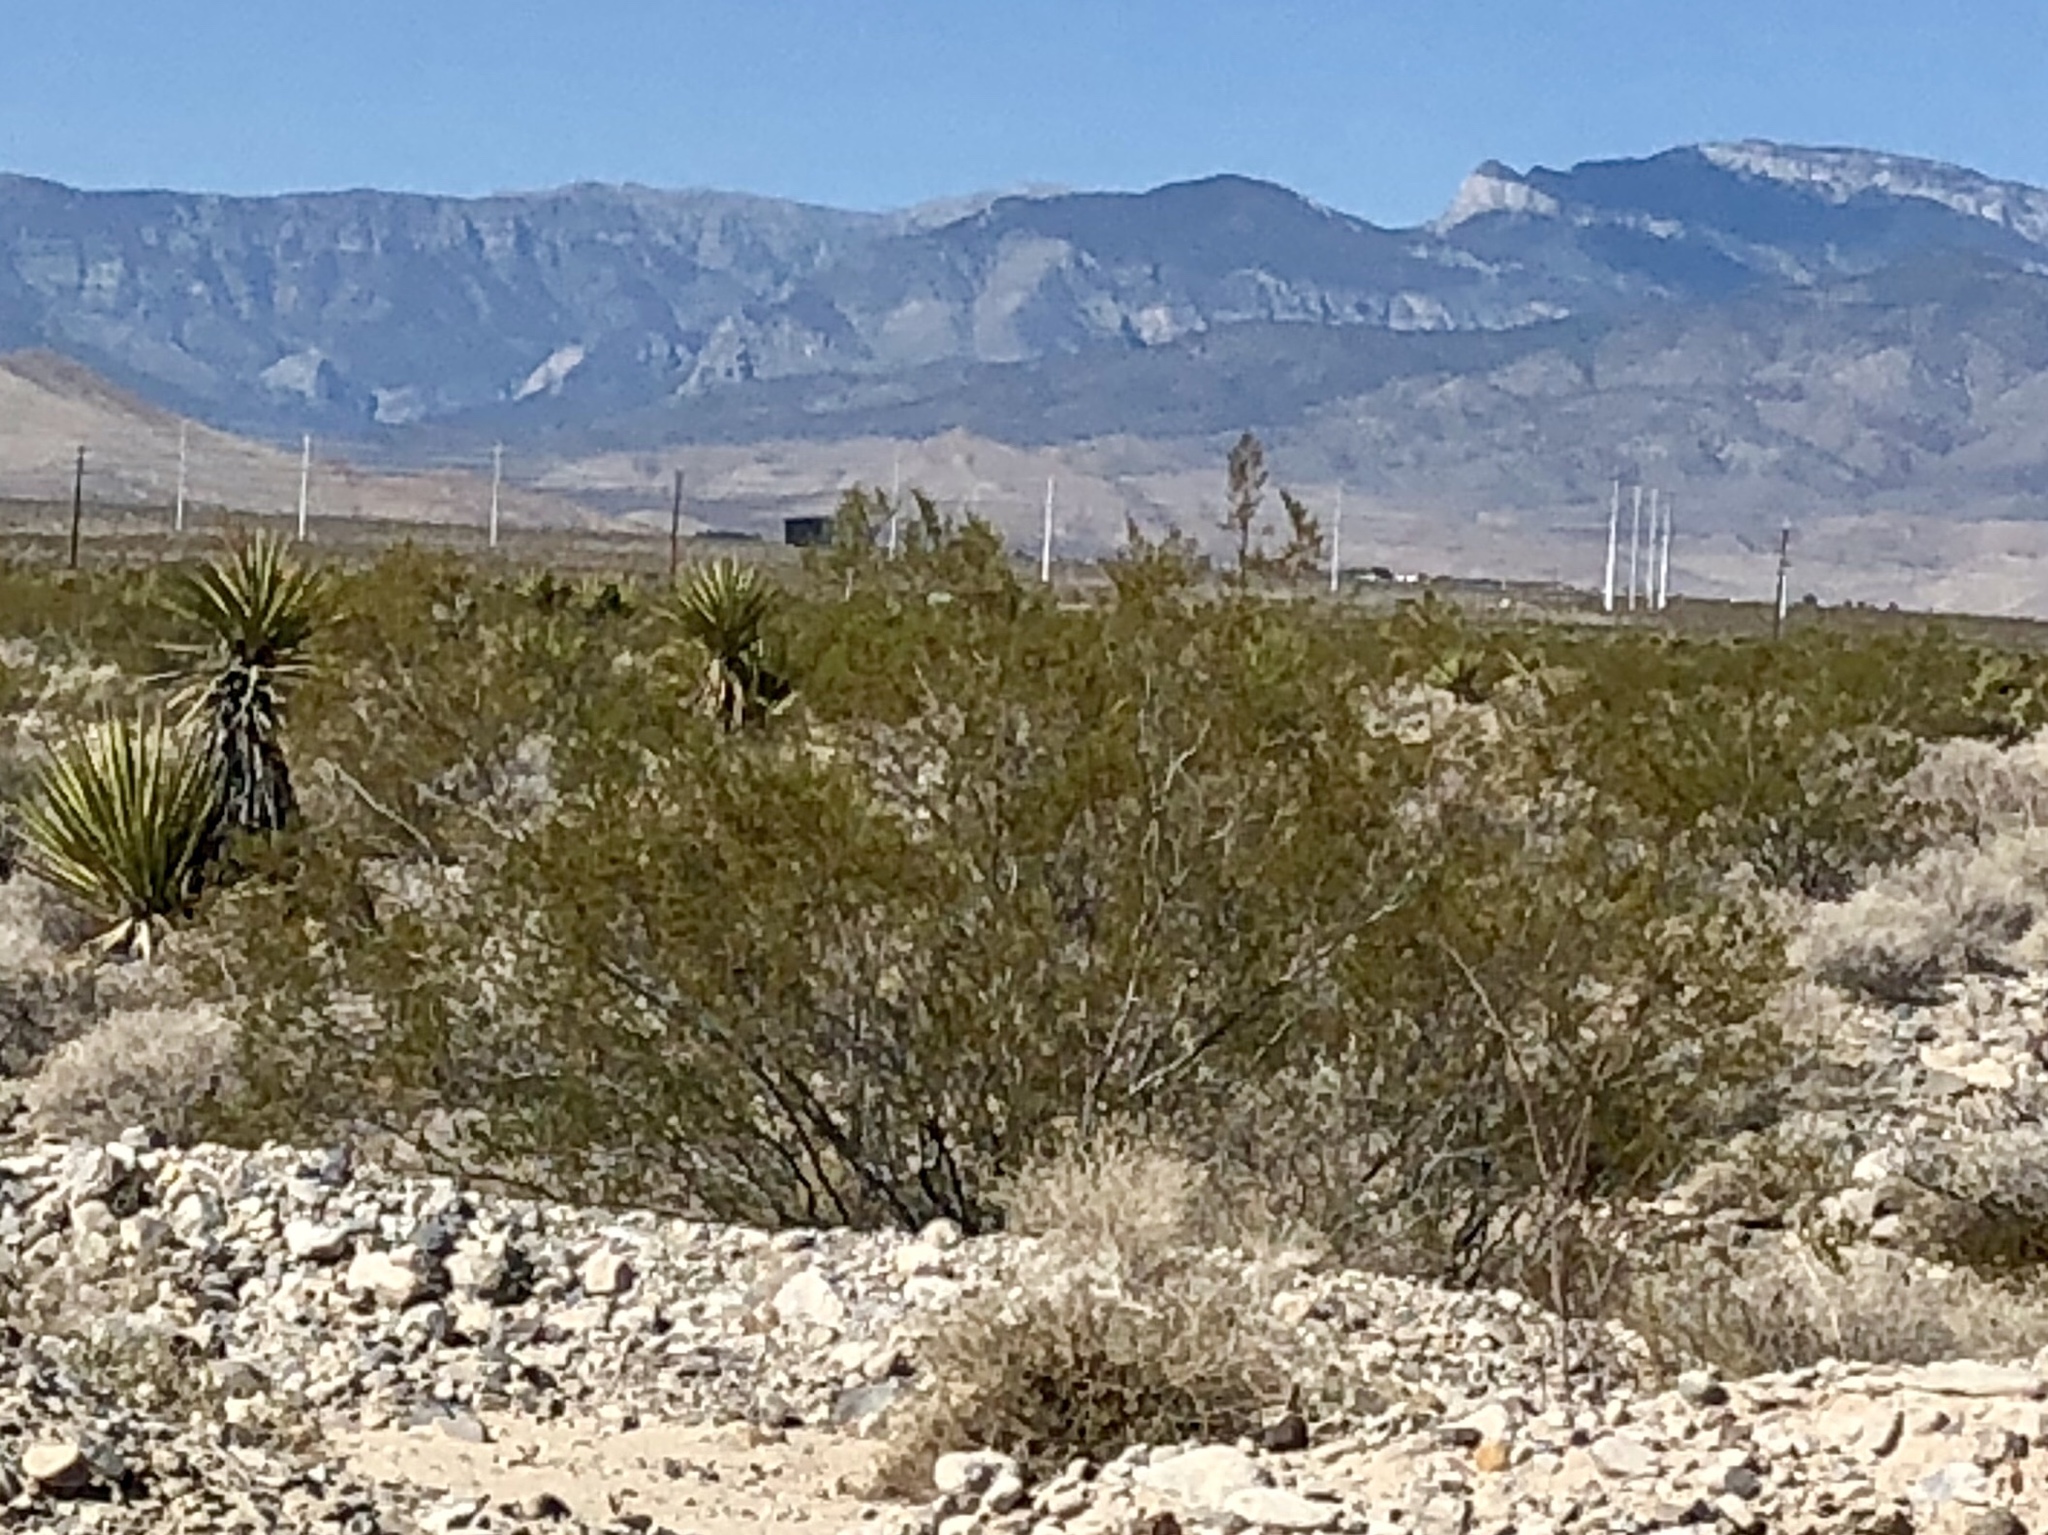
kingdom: Plantae
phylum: Tracheophyta
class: Magnoliopsida
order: Zygophyllales
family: Zygophyllaceae
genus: Larrea
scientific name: Larrea tridentata
